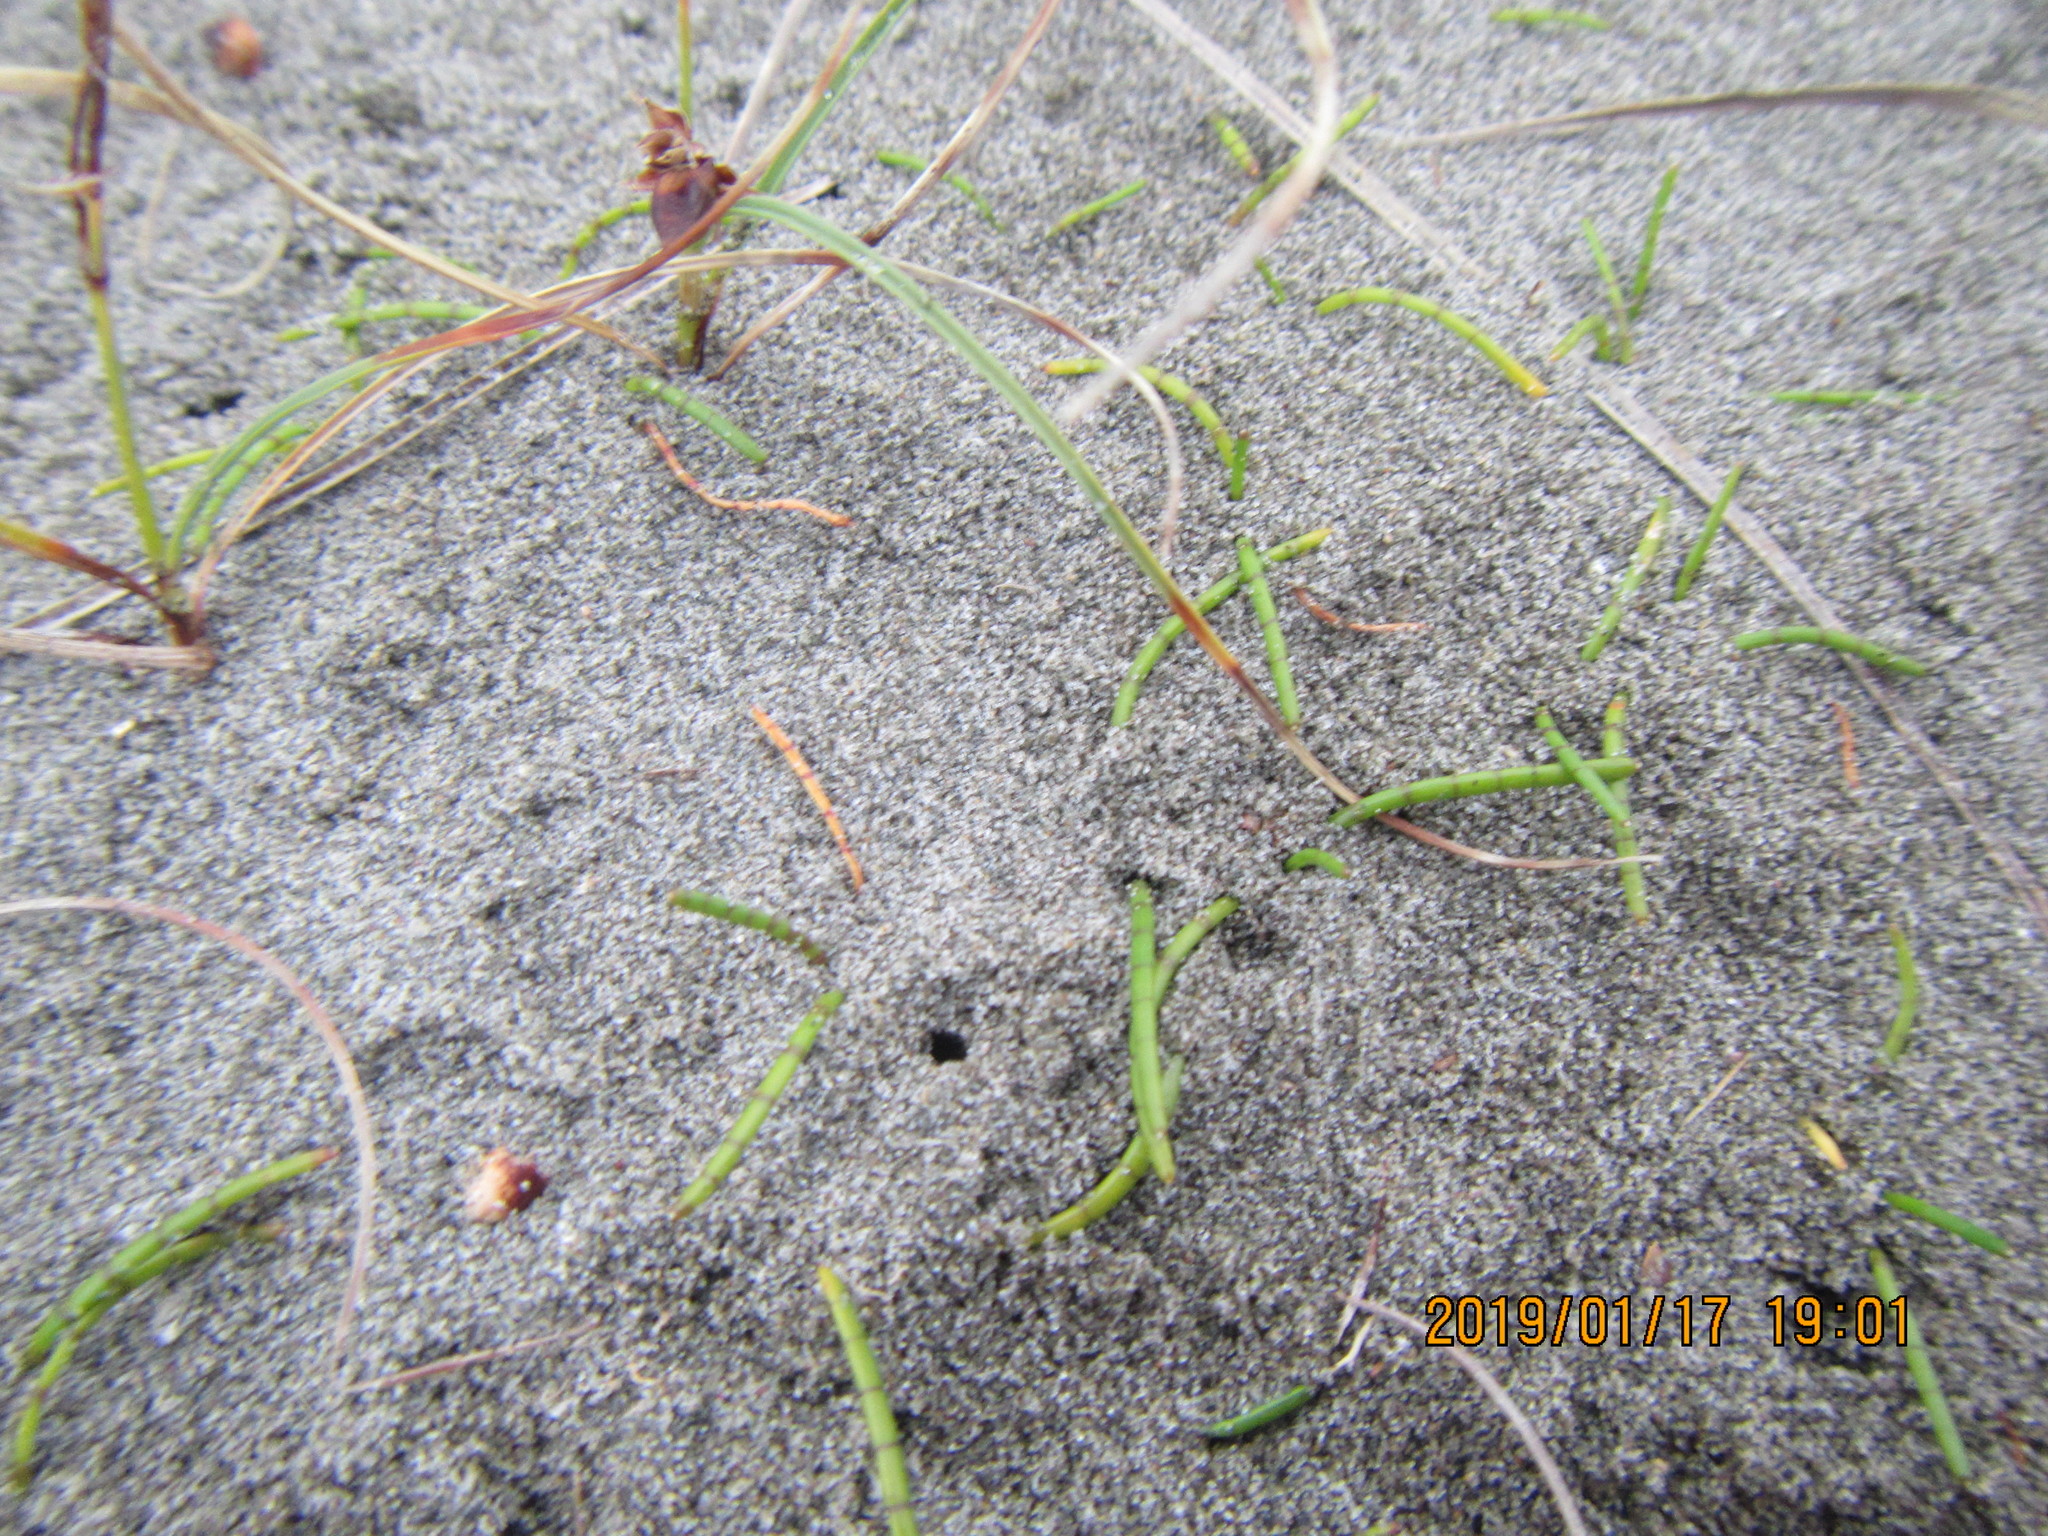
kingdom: Plantae
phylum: Tracheophyta
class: Magnoliopsida
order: Apiales
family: Apiaceae
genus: Lilaeopsis
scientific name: Lilaeopsis novae-zelandiae
